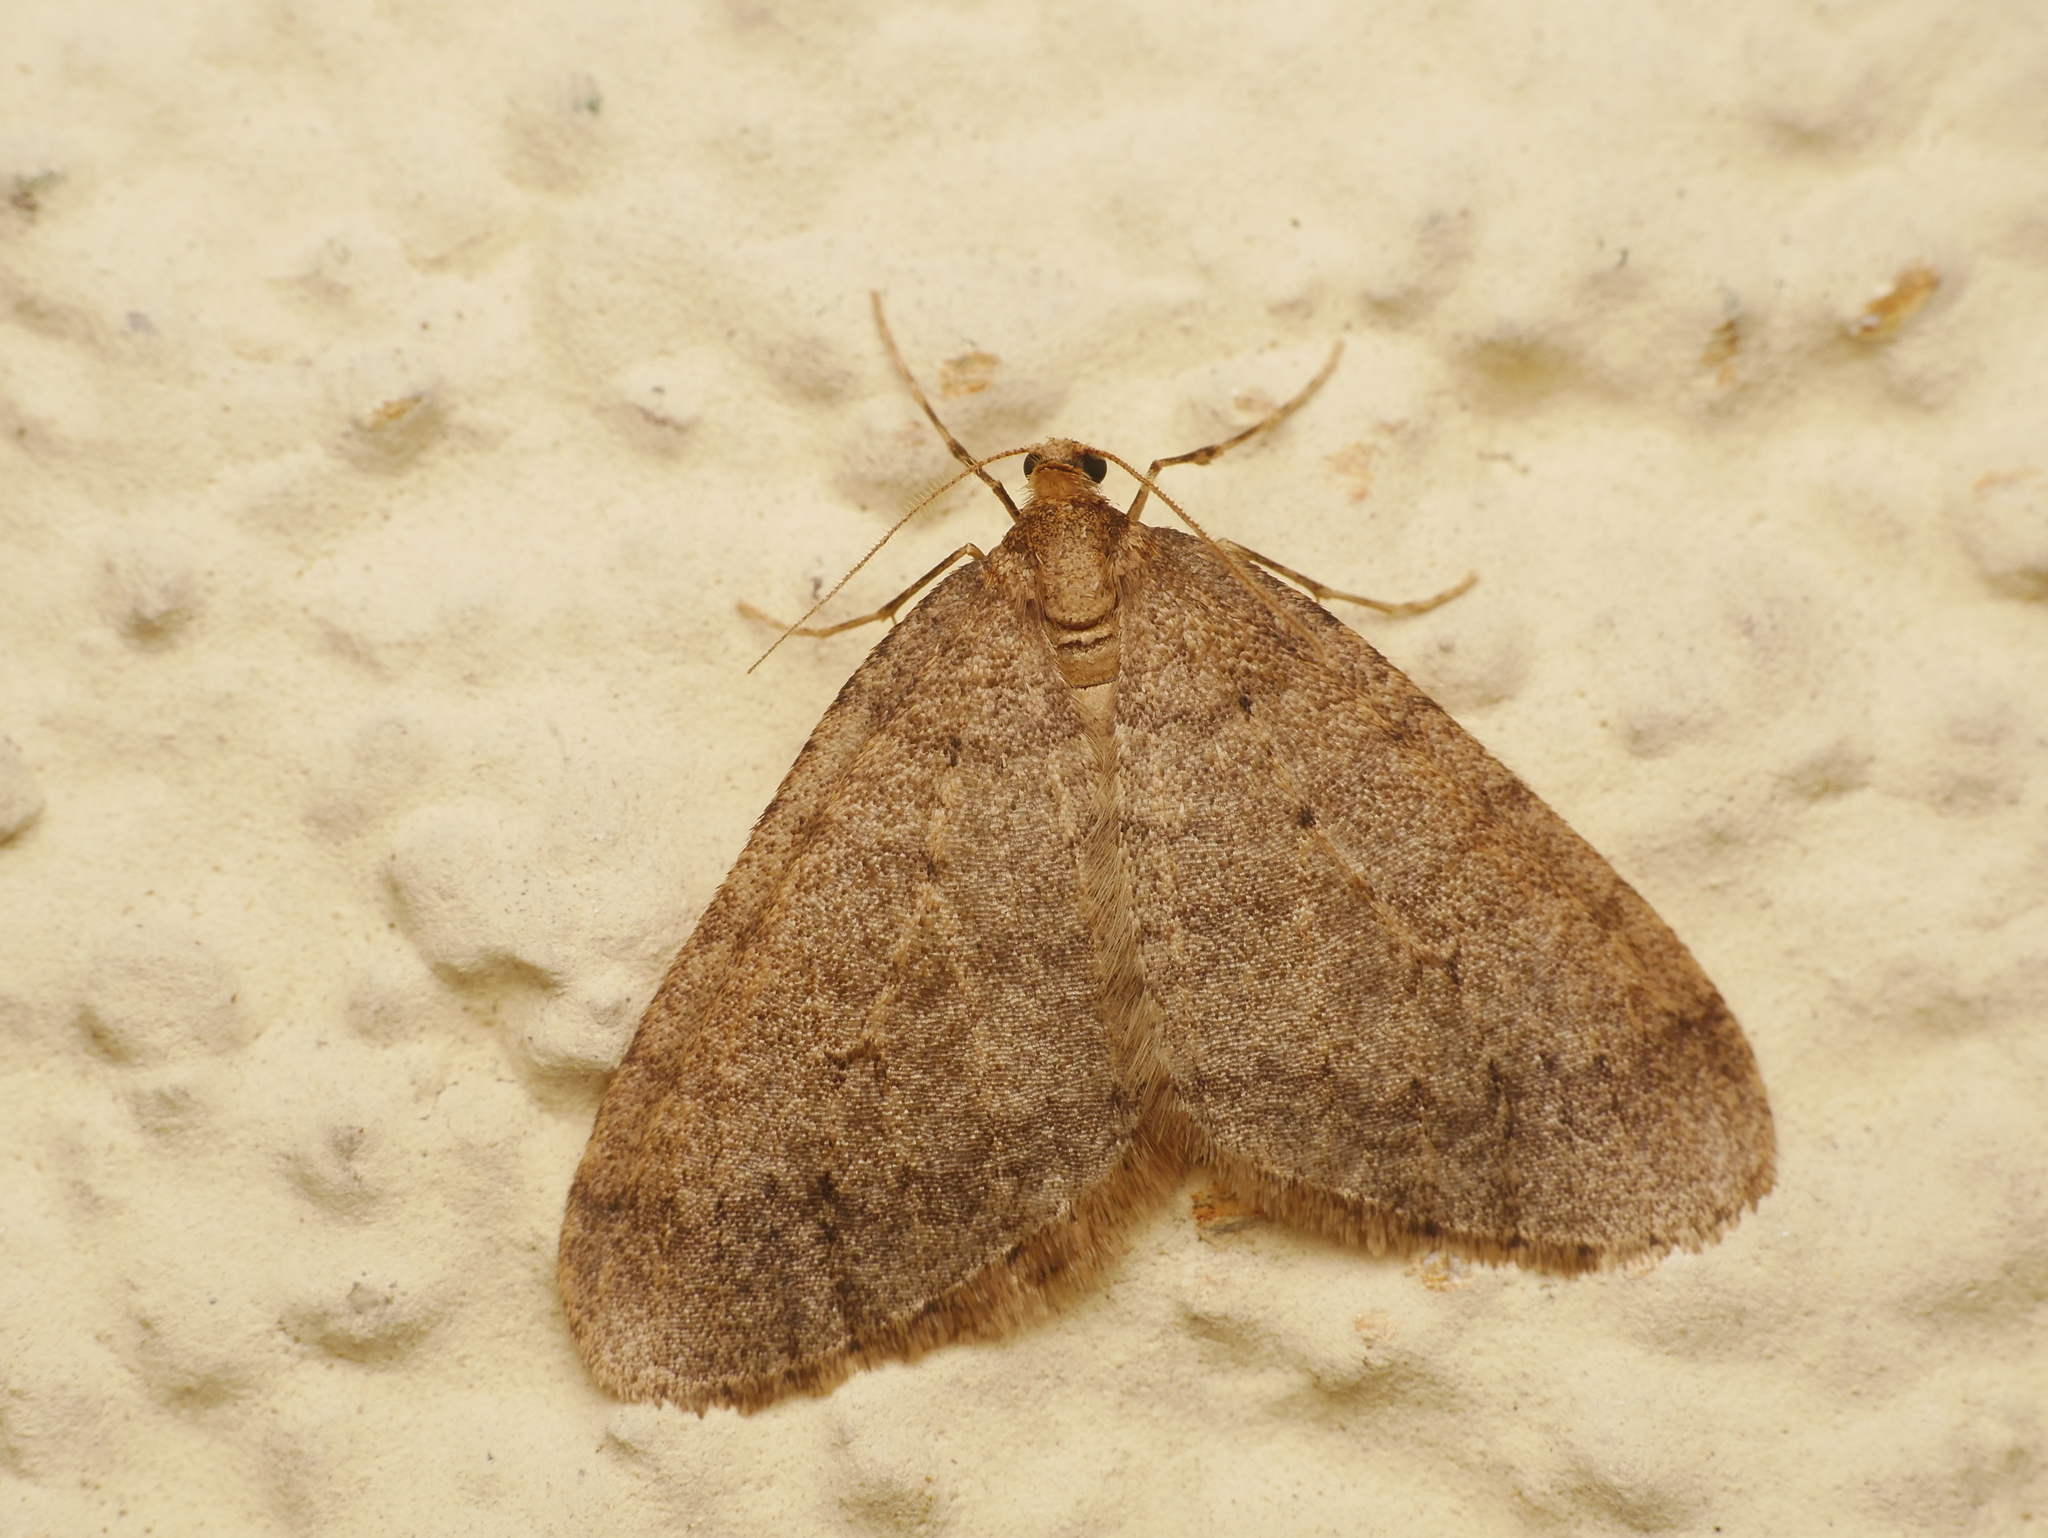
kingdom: Animalia
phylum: Arthropoda
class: Insecta
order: Lepidoptera
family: Geometridae
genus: Operophtera
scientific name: Operophtera brumata
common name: Winter moth
